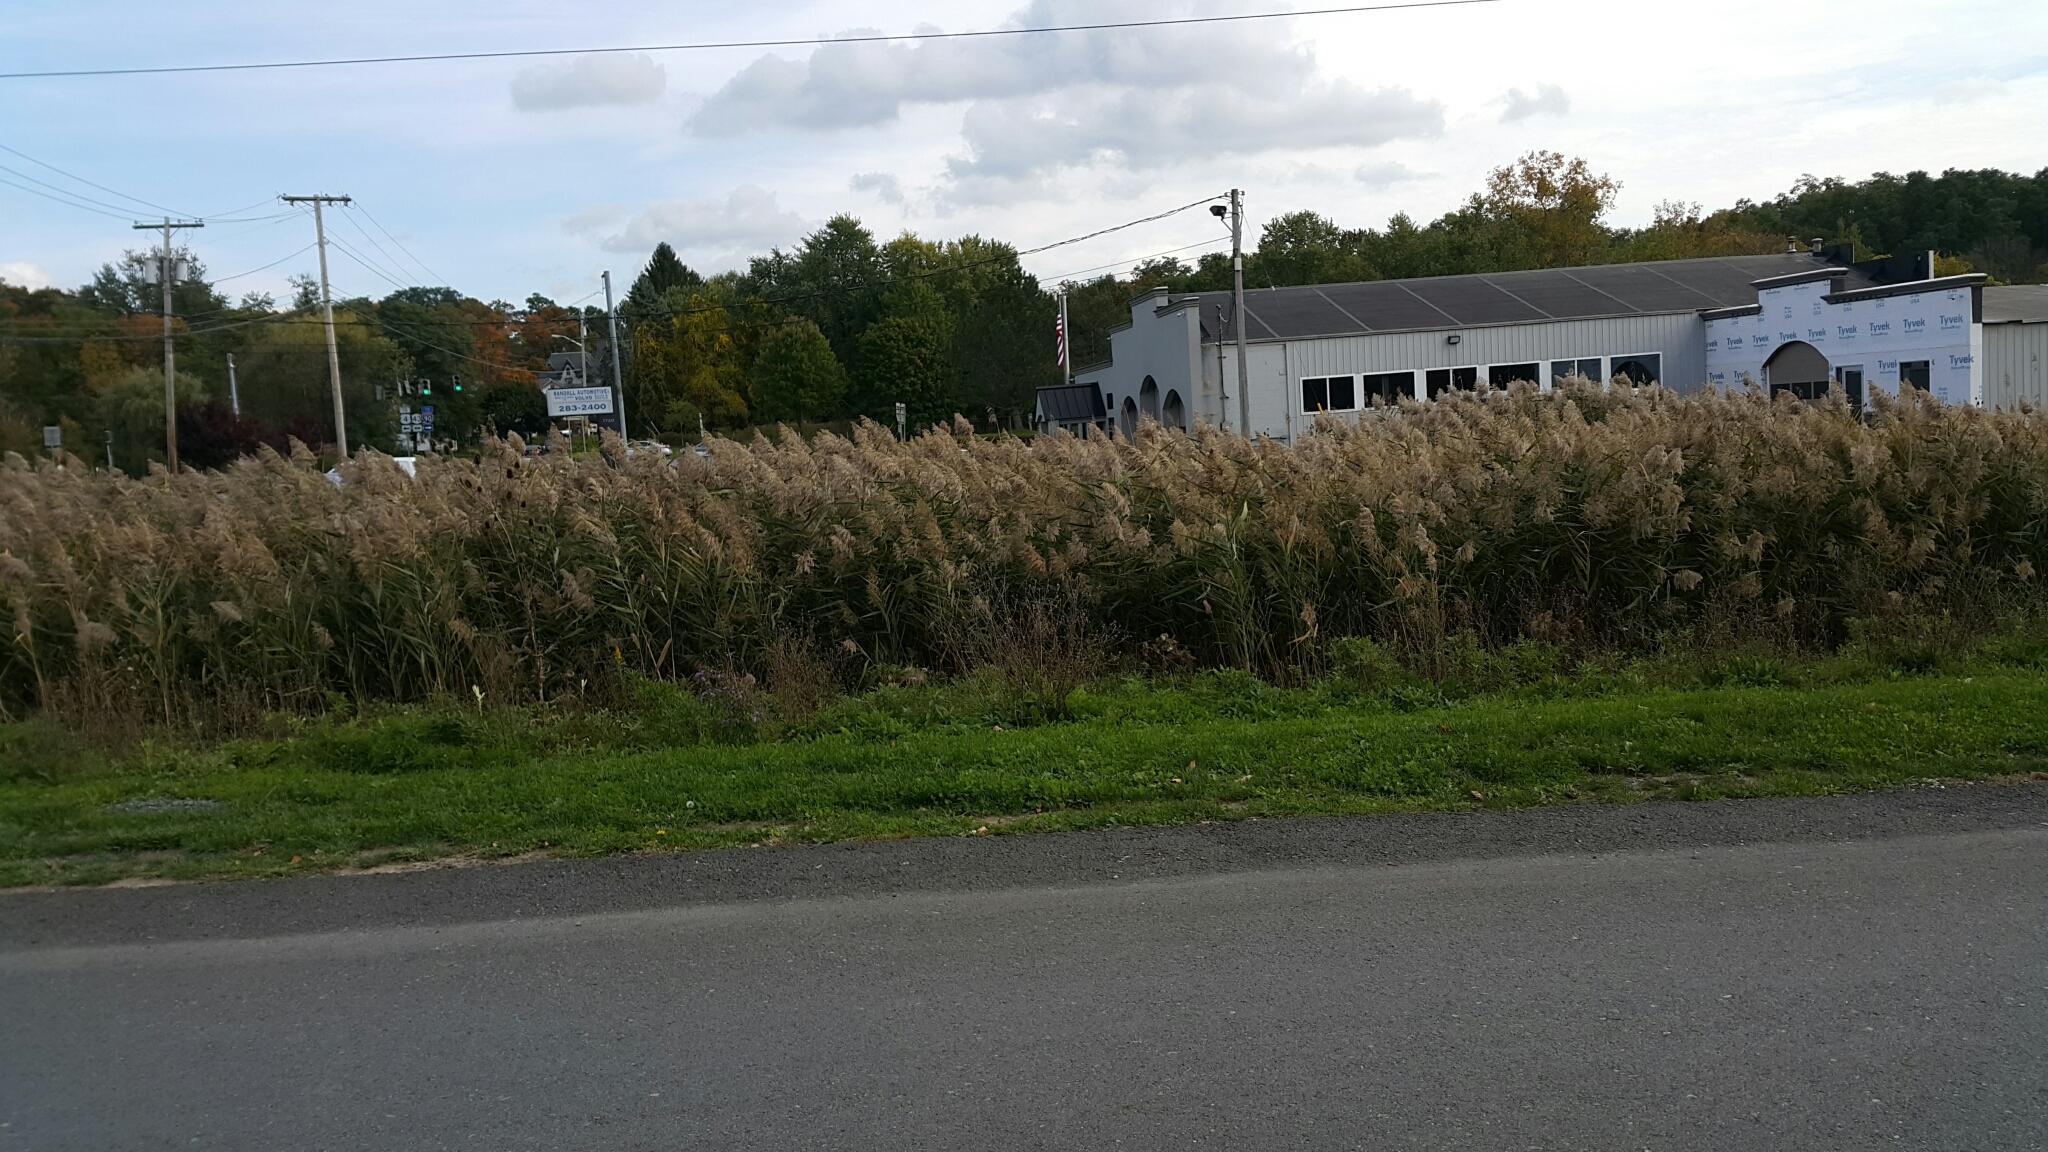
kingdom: Plantae
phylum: Tracheophyta
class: Liliopsida
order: Poales
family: Poaceae
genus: Phragmites
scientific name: Phragmites australis
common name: Common reed
